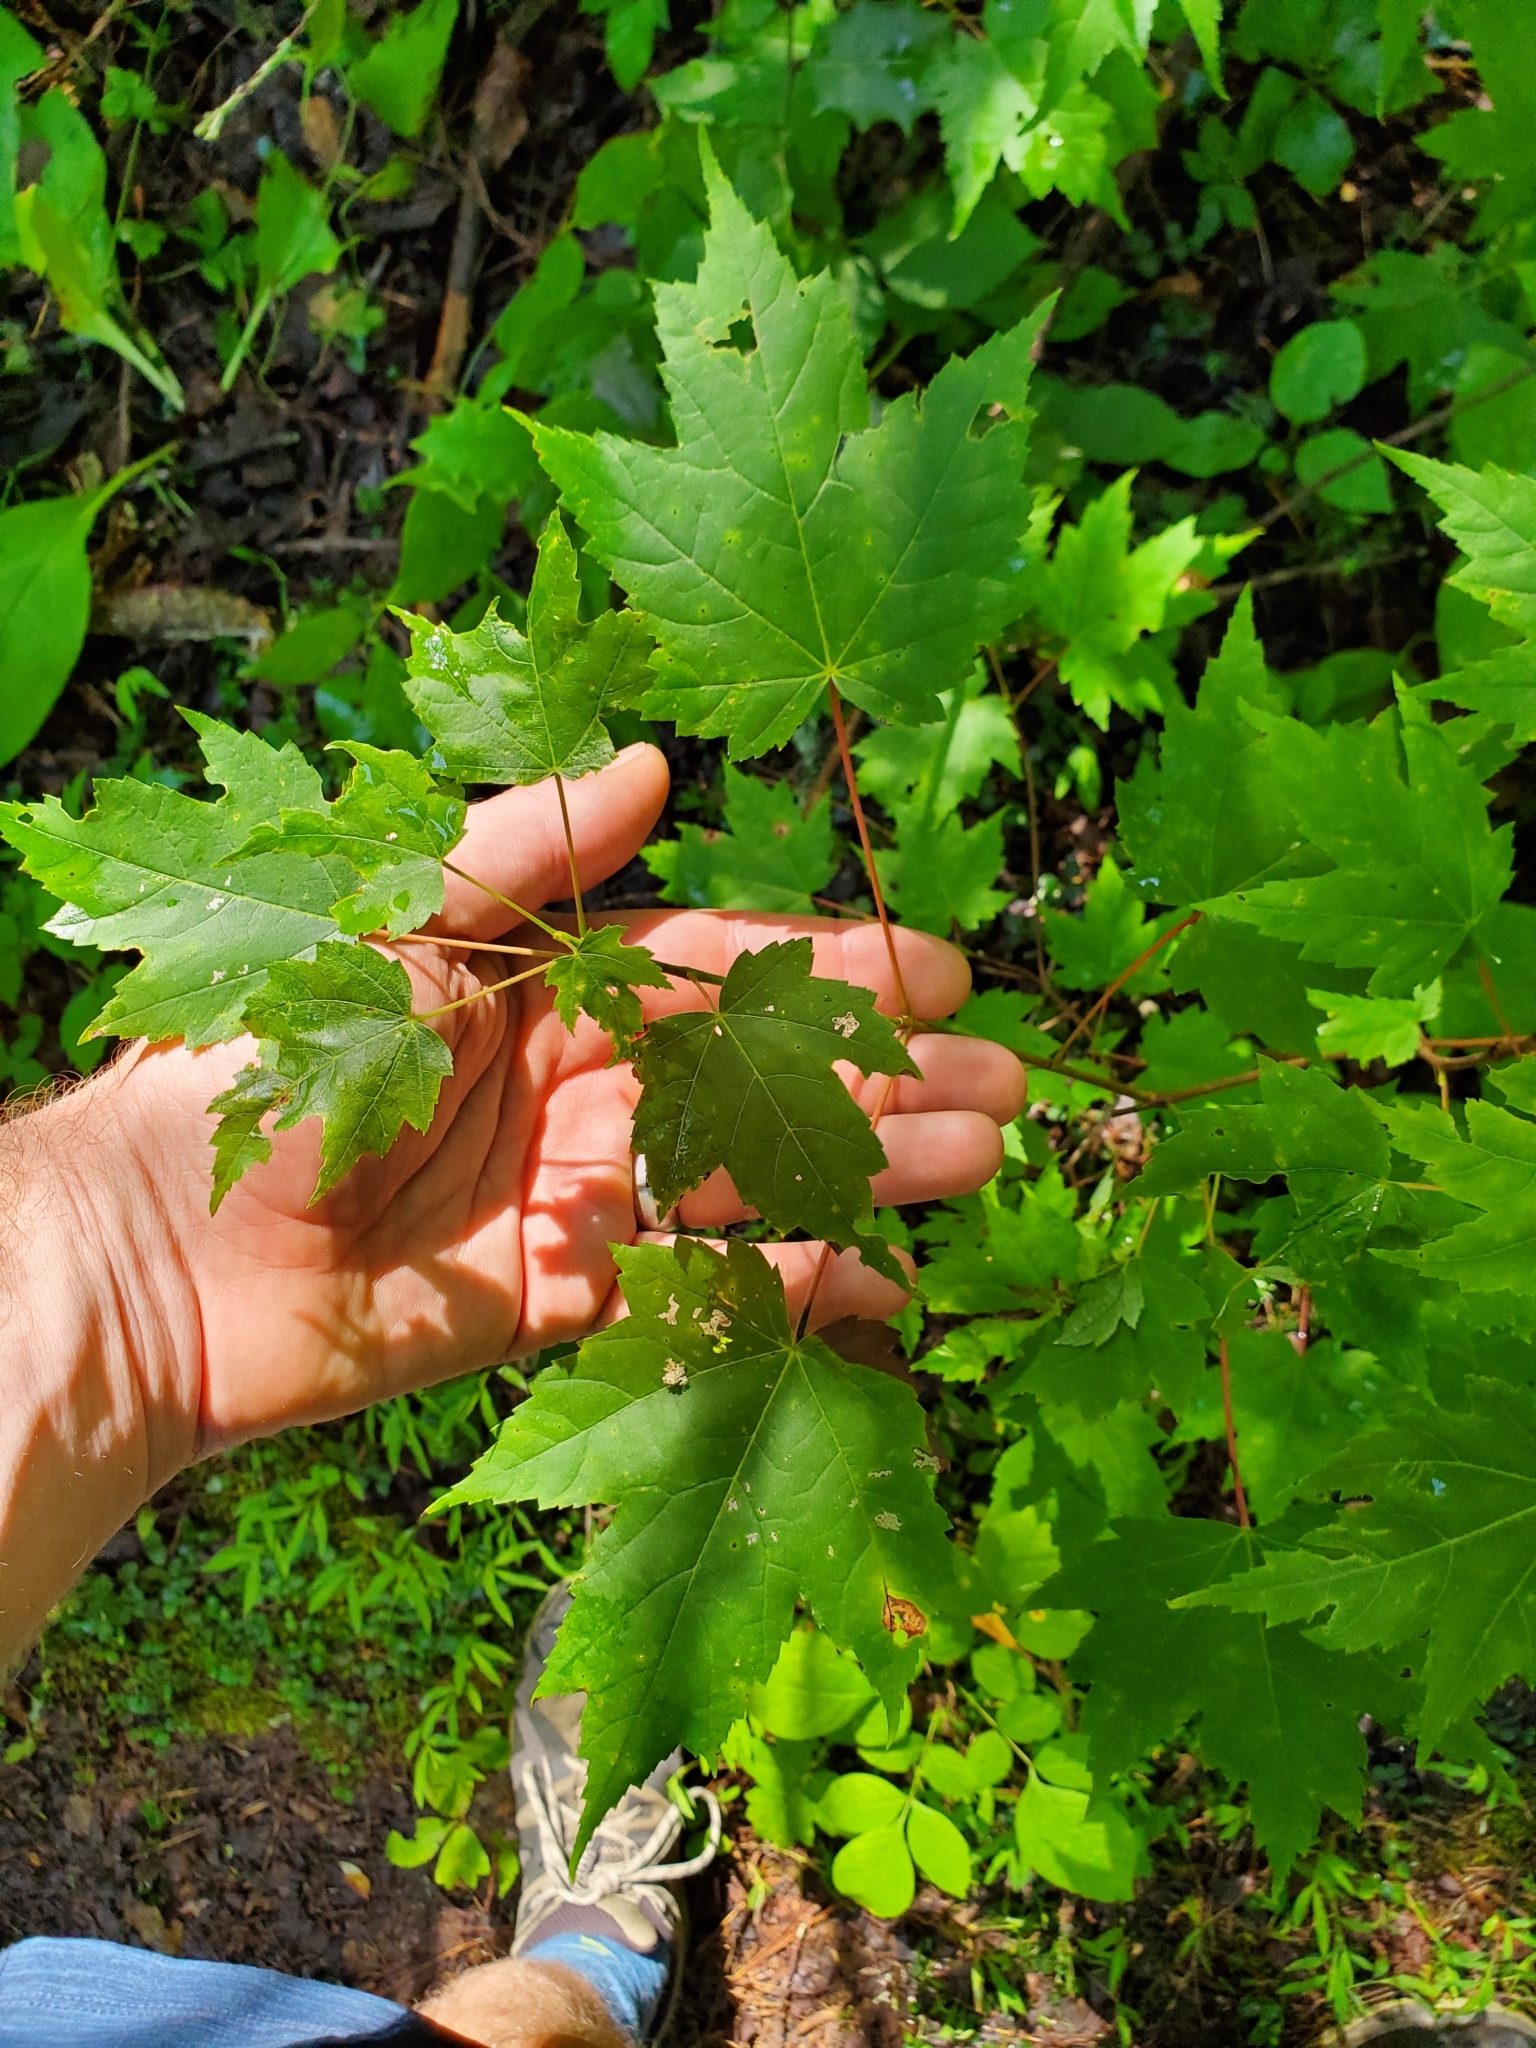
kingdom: Plantae
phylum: Tracheophyta
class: Magnoliopsida
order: Sapindales
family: Sapindaceae
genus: Acer
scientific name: Acer rubrum
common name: Red maple
